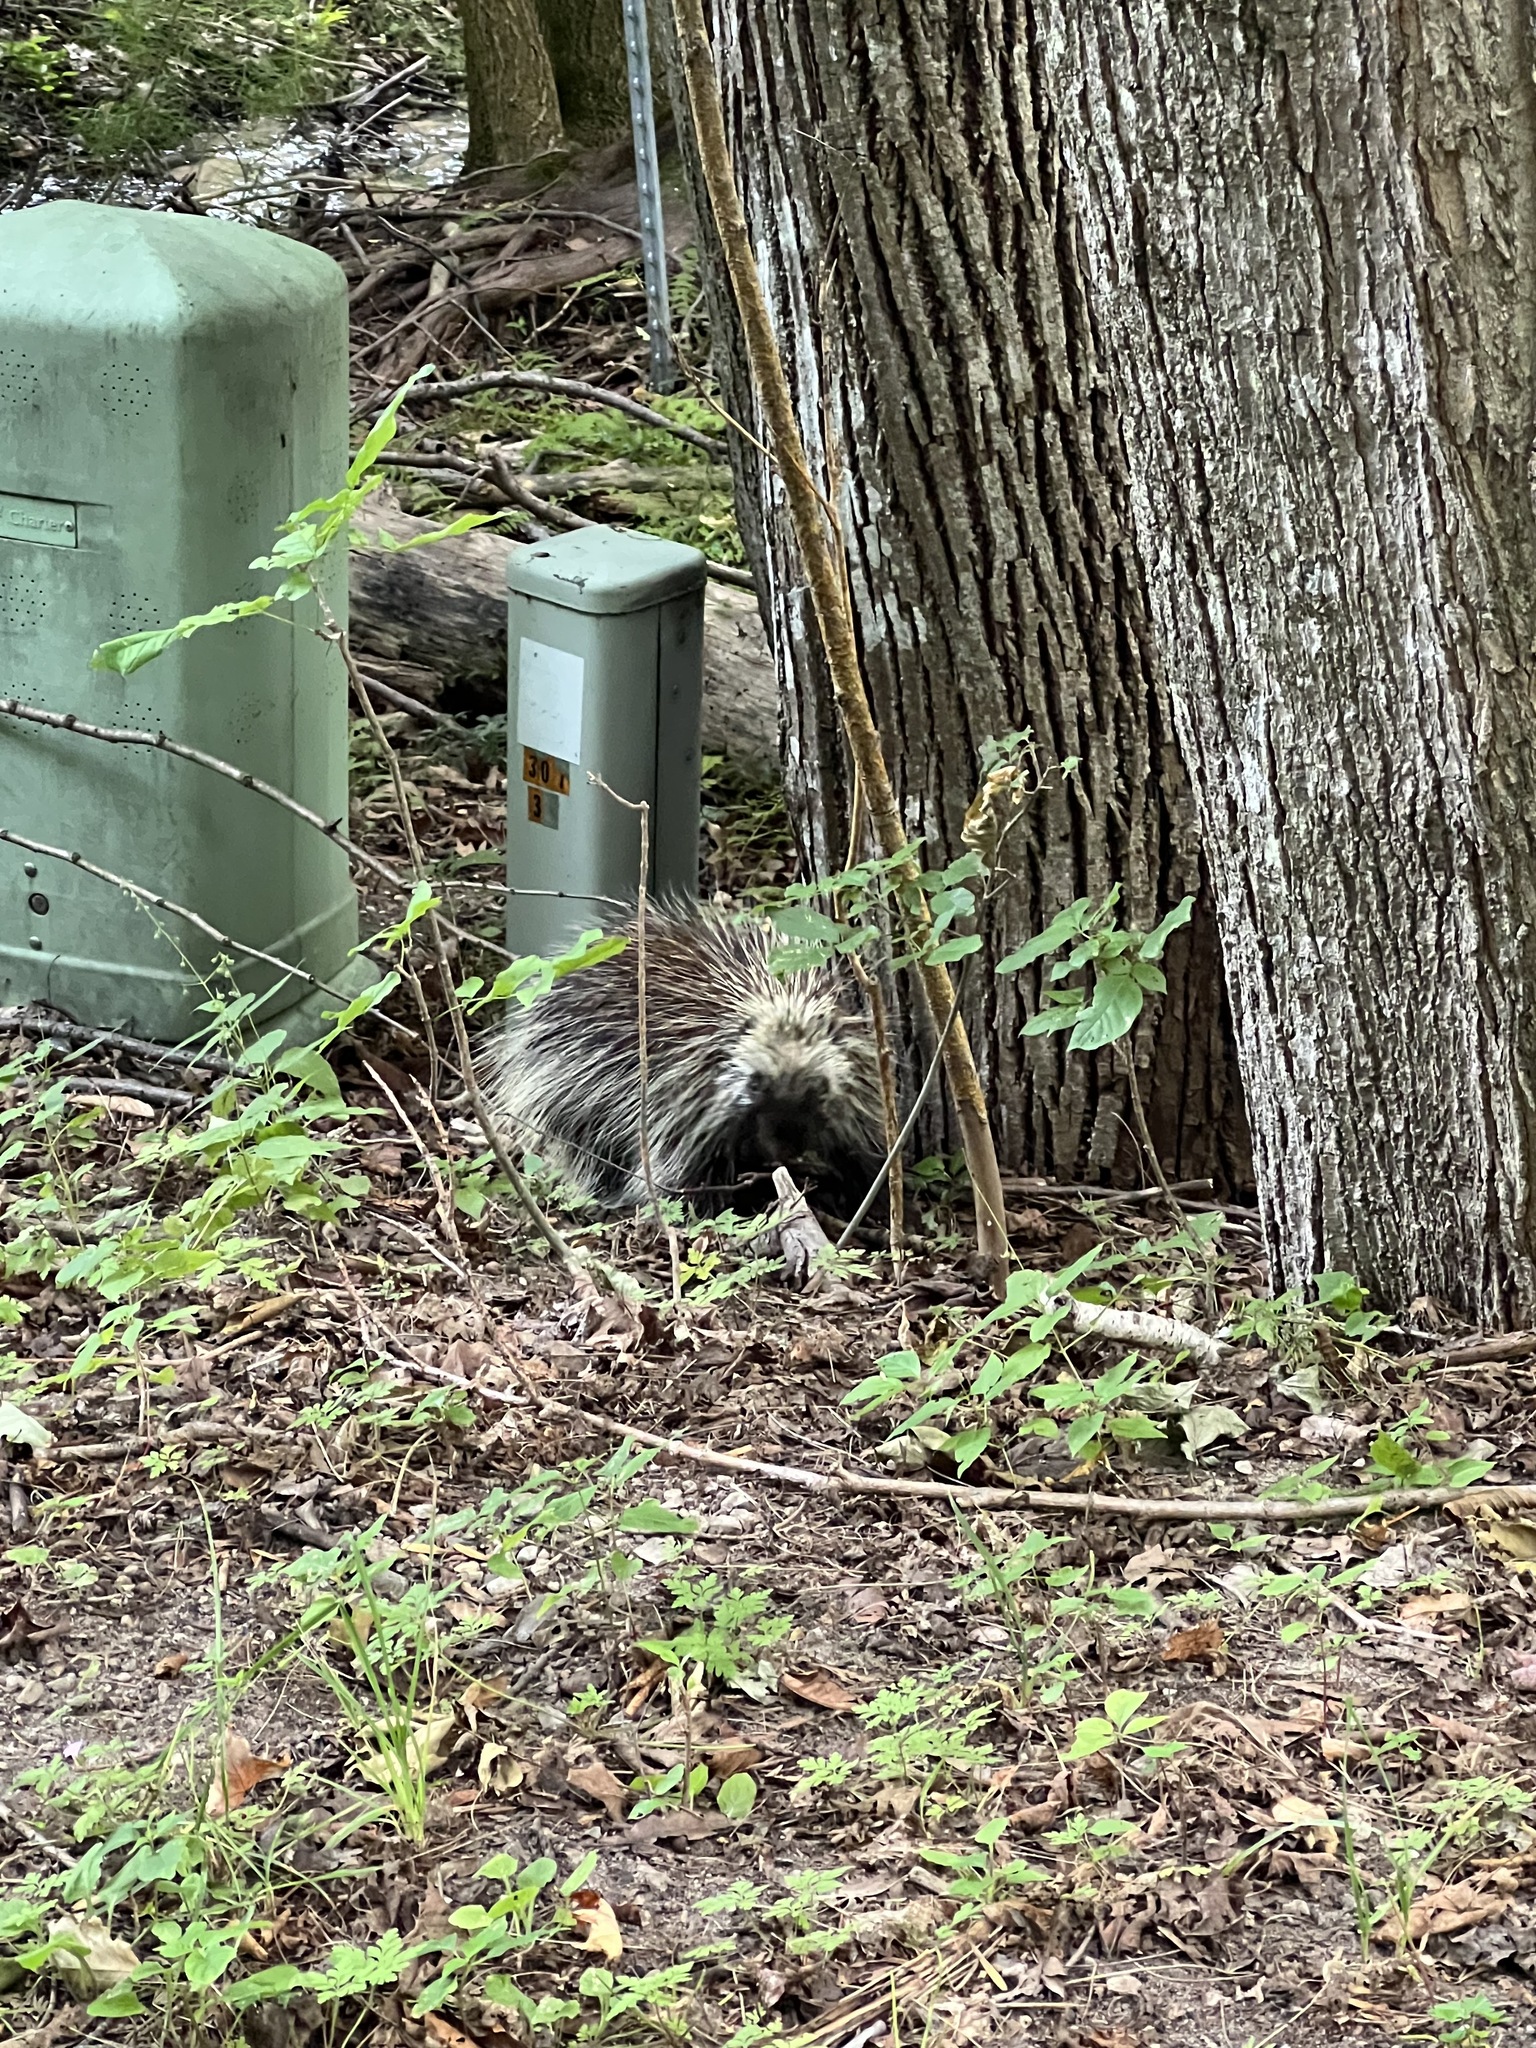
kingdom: Animalia
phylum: Chordata
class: Mammalia
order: Rodentia
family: Erethizontidae
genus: Erethizon
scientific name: Erethizon dorsatus
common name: North american porcupine
